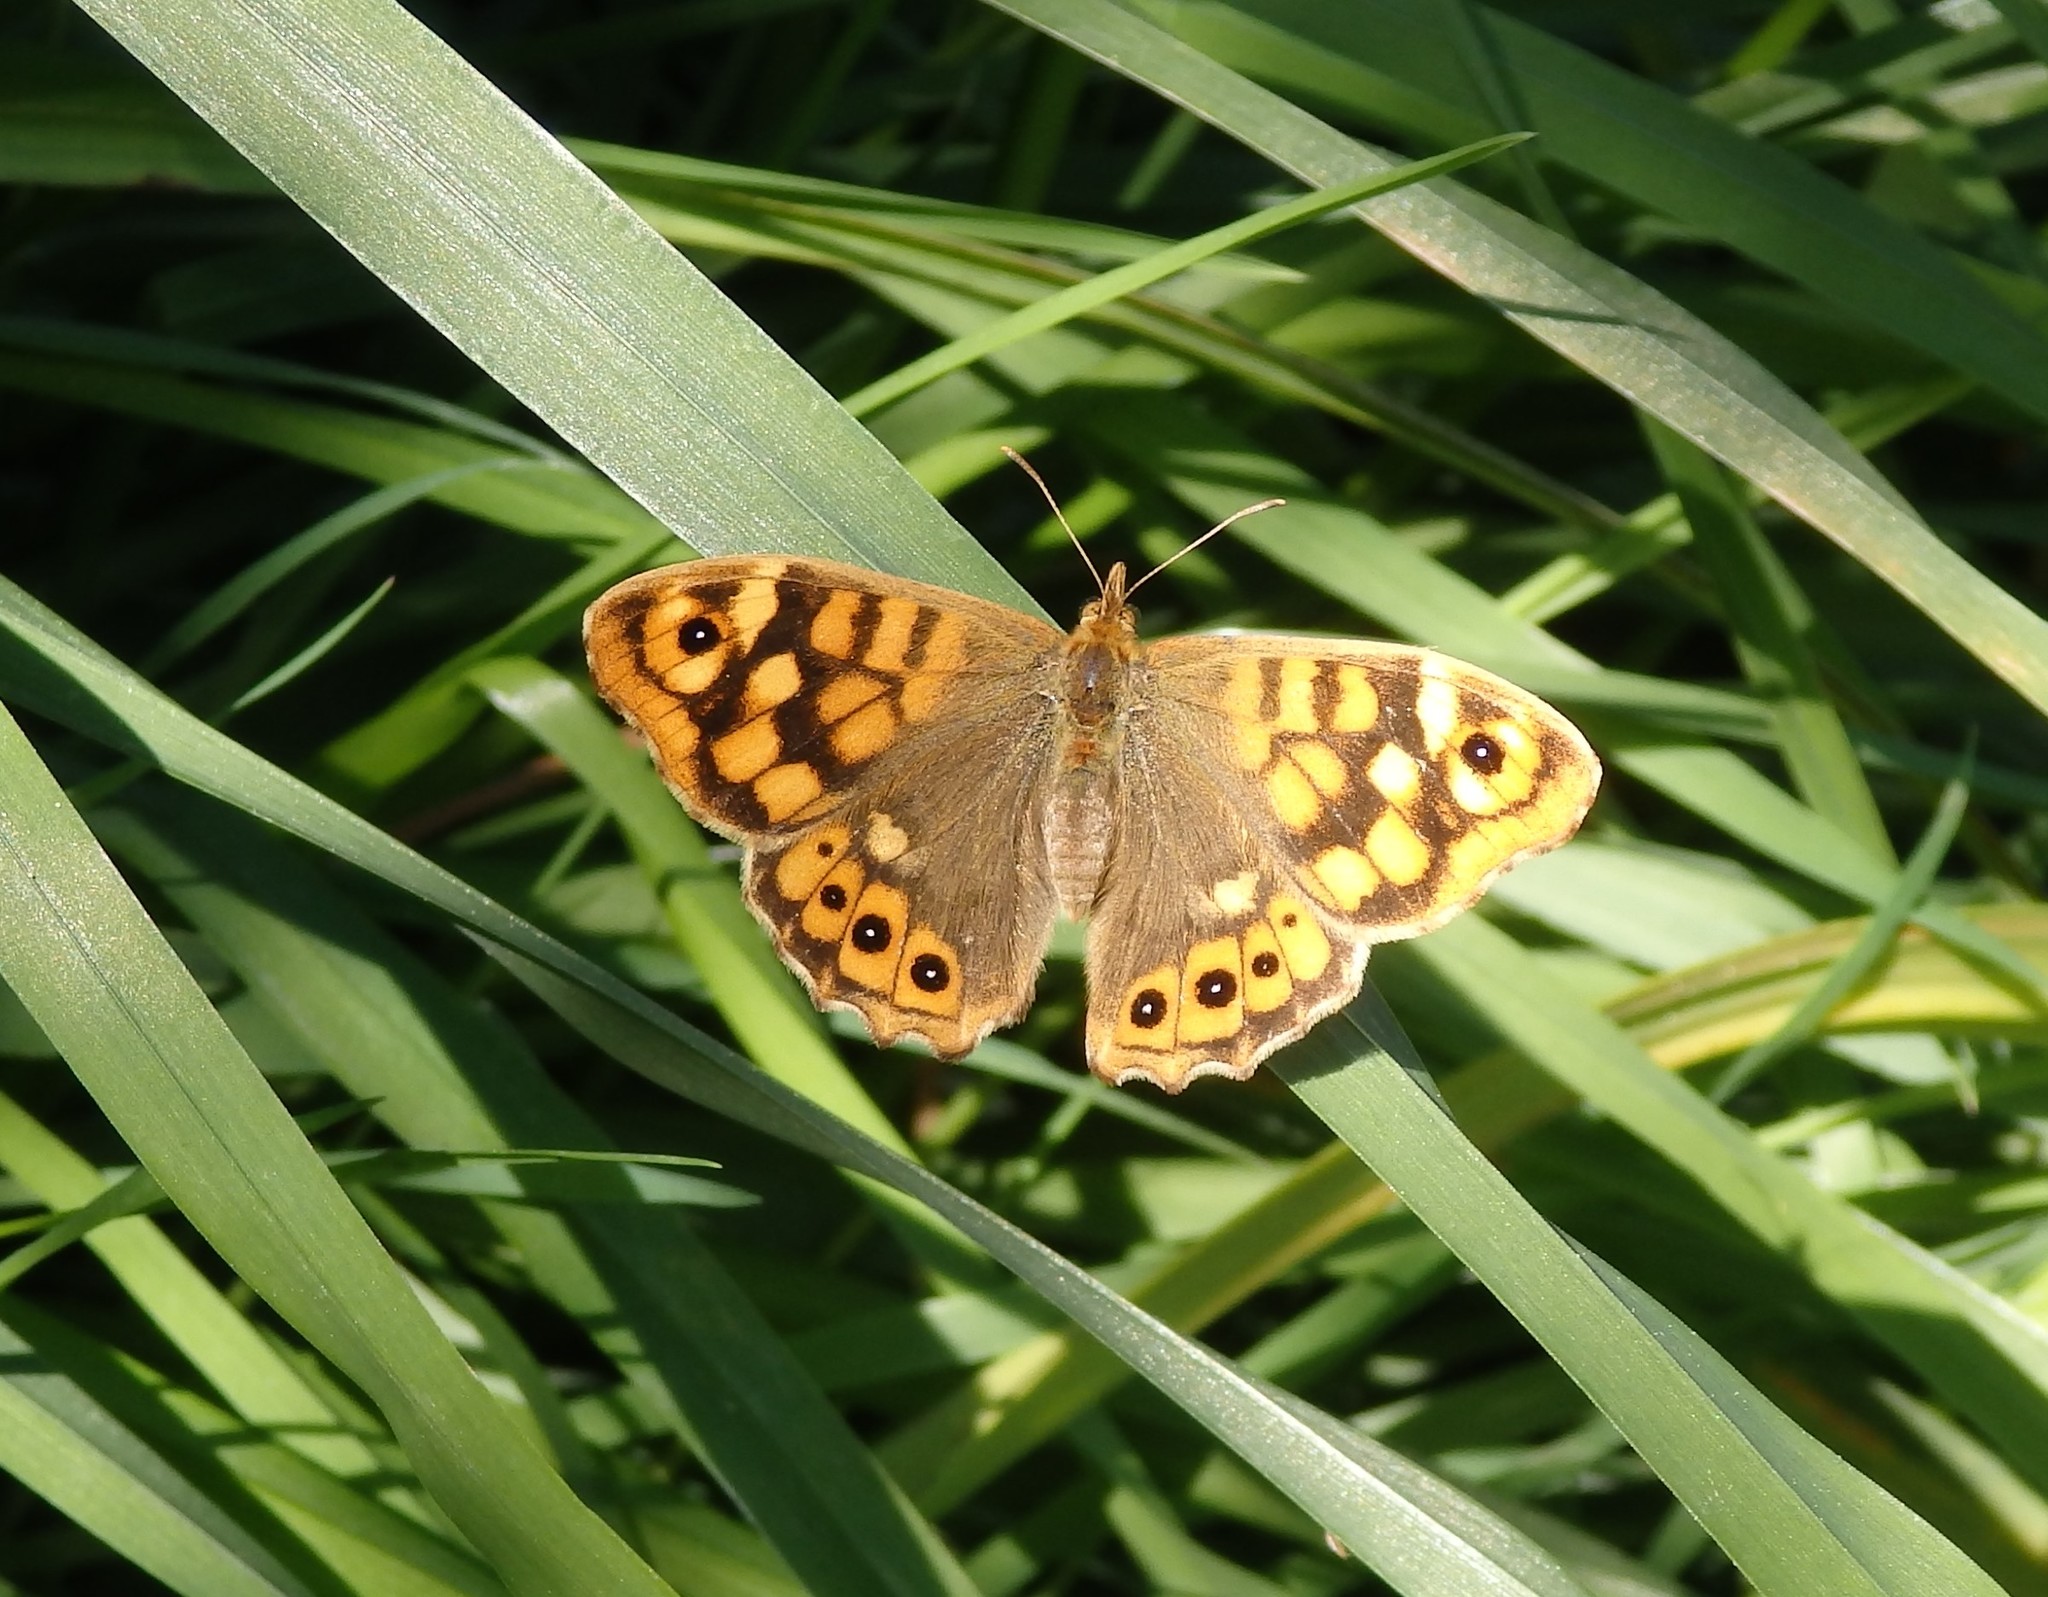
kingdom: Animalia
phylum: Arthropoda
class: Insecta
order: Lepidoptera
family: Nymphalidae
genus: Pararge
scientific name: Pararge aegeria
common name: Speckled wood
